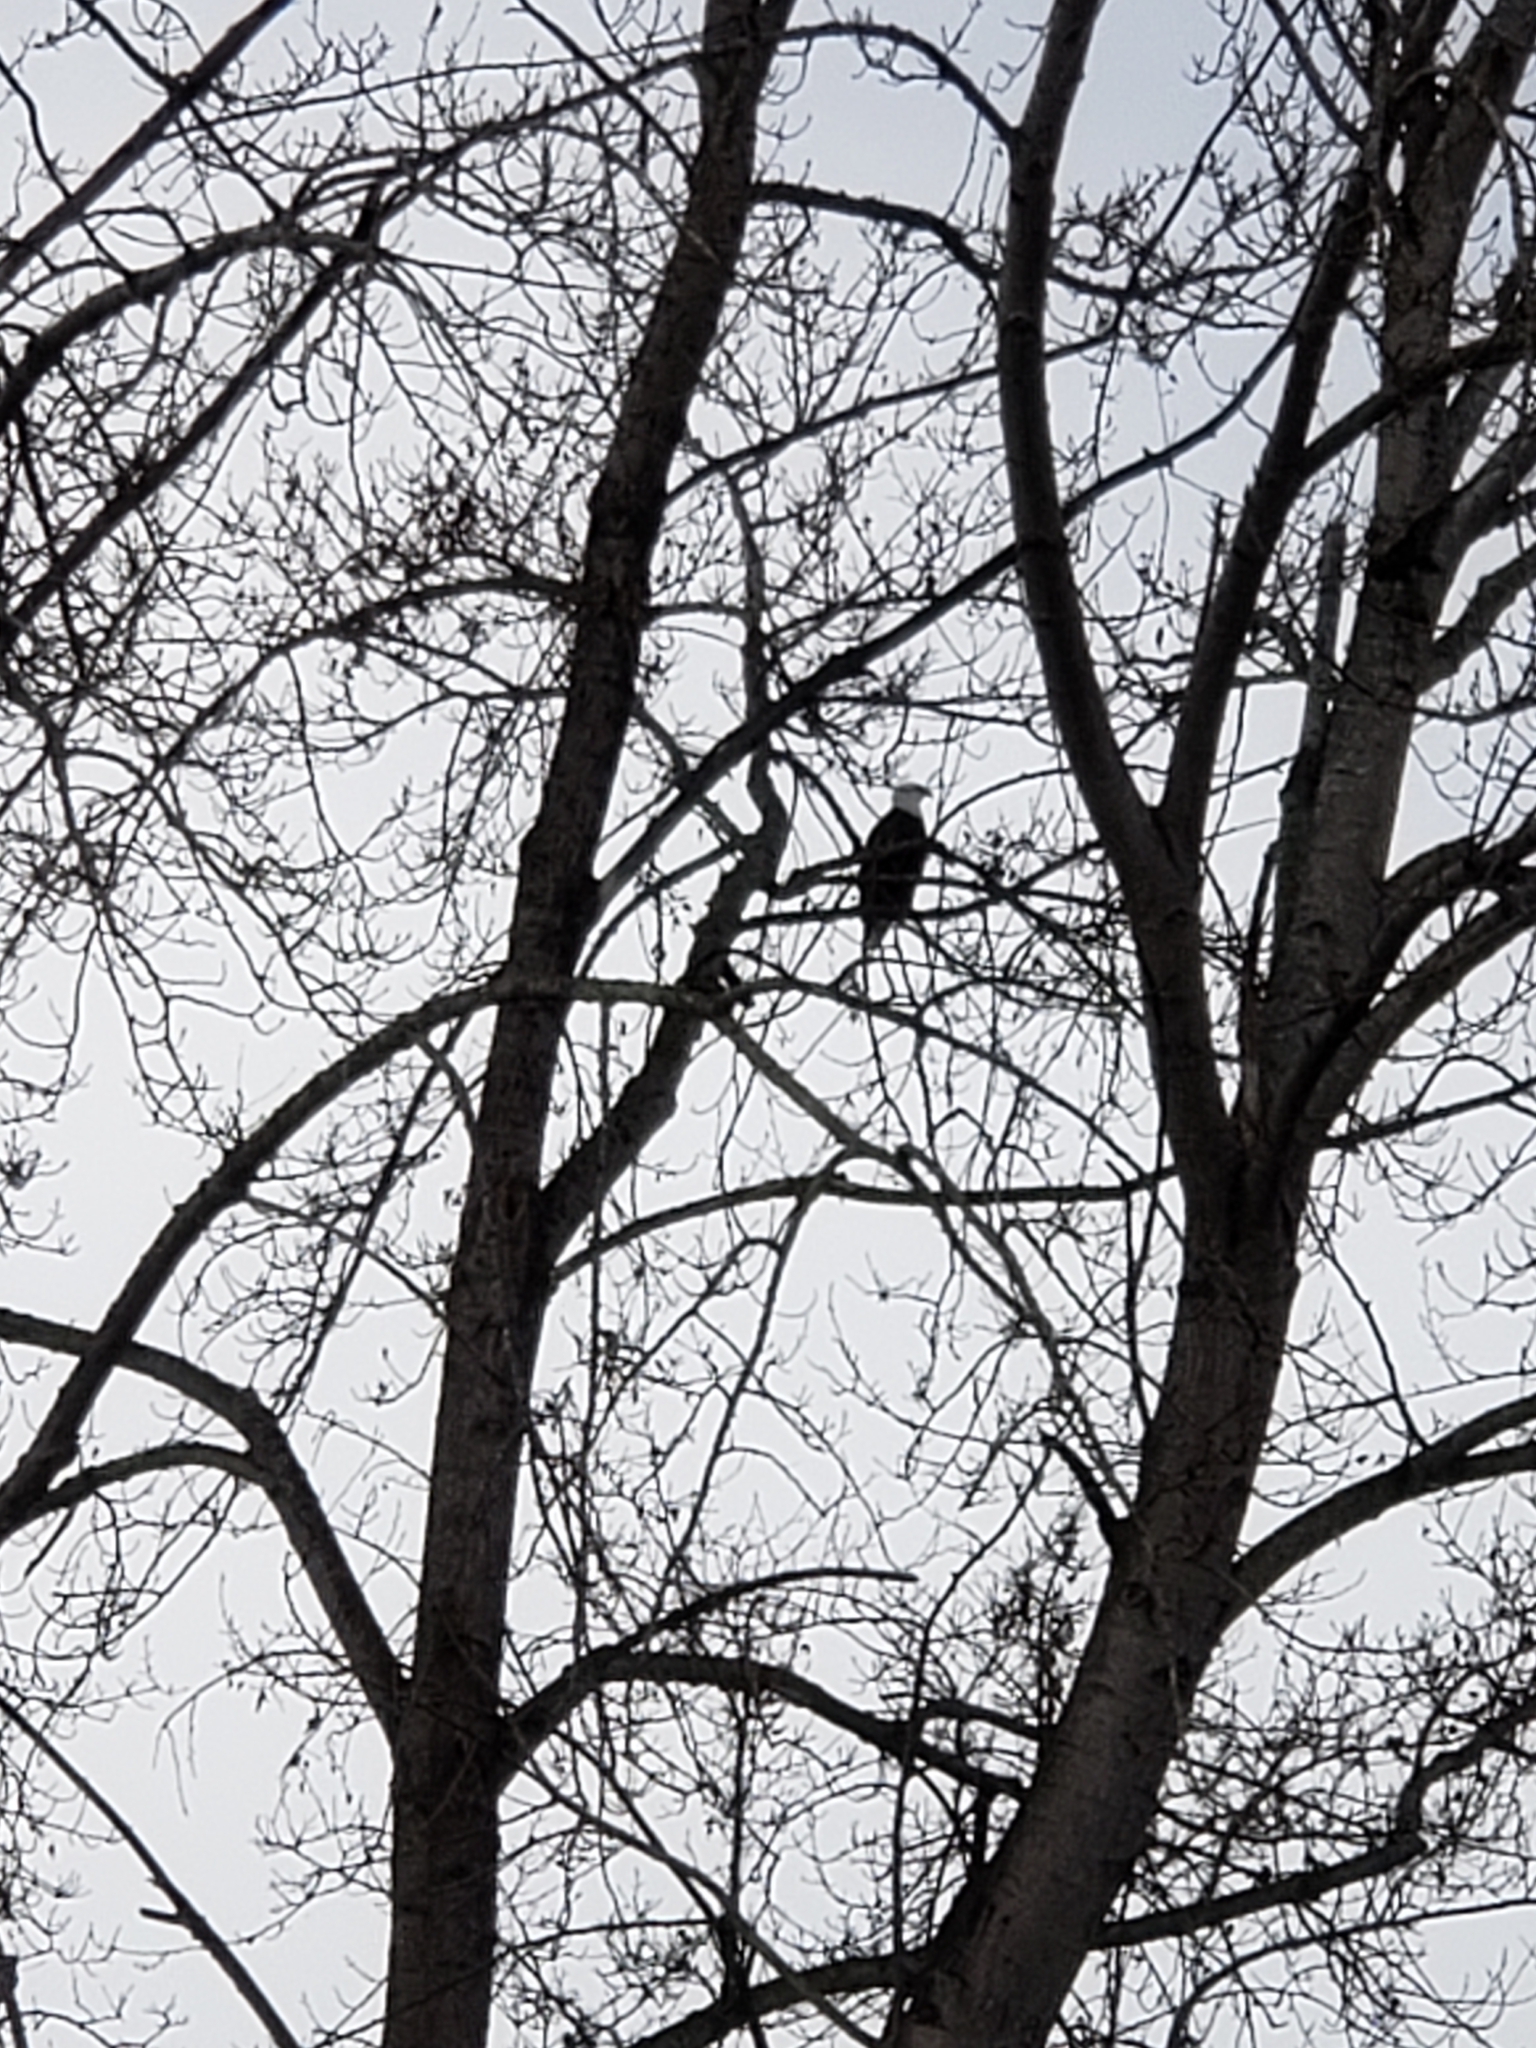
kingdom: Animalia
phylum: Chordata
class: Aves
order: Accipitriformes
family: Accipitridae
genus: Haliaeetus
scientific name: Haliaeetus leucocephalus
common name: Bald eagle
